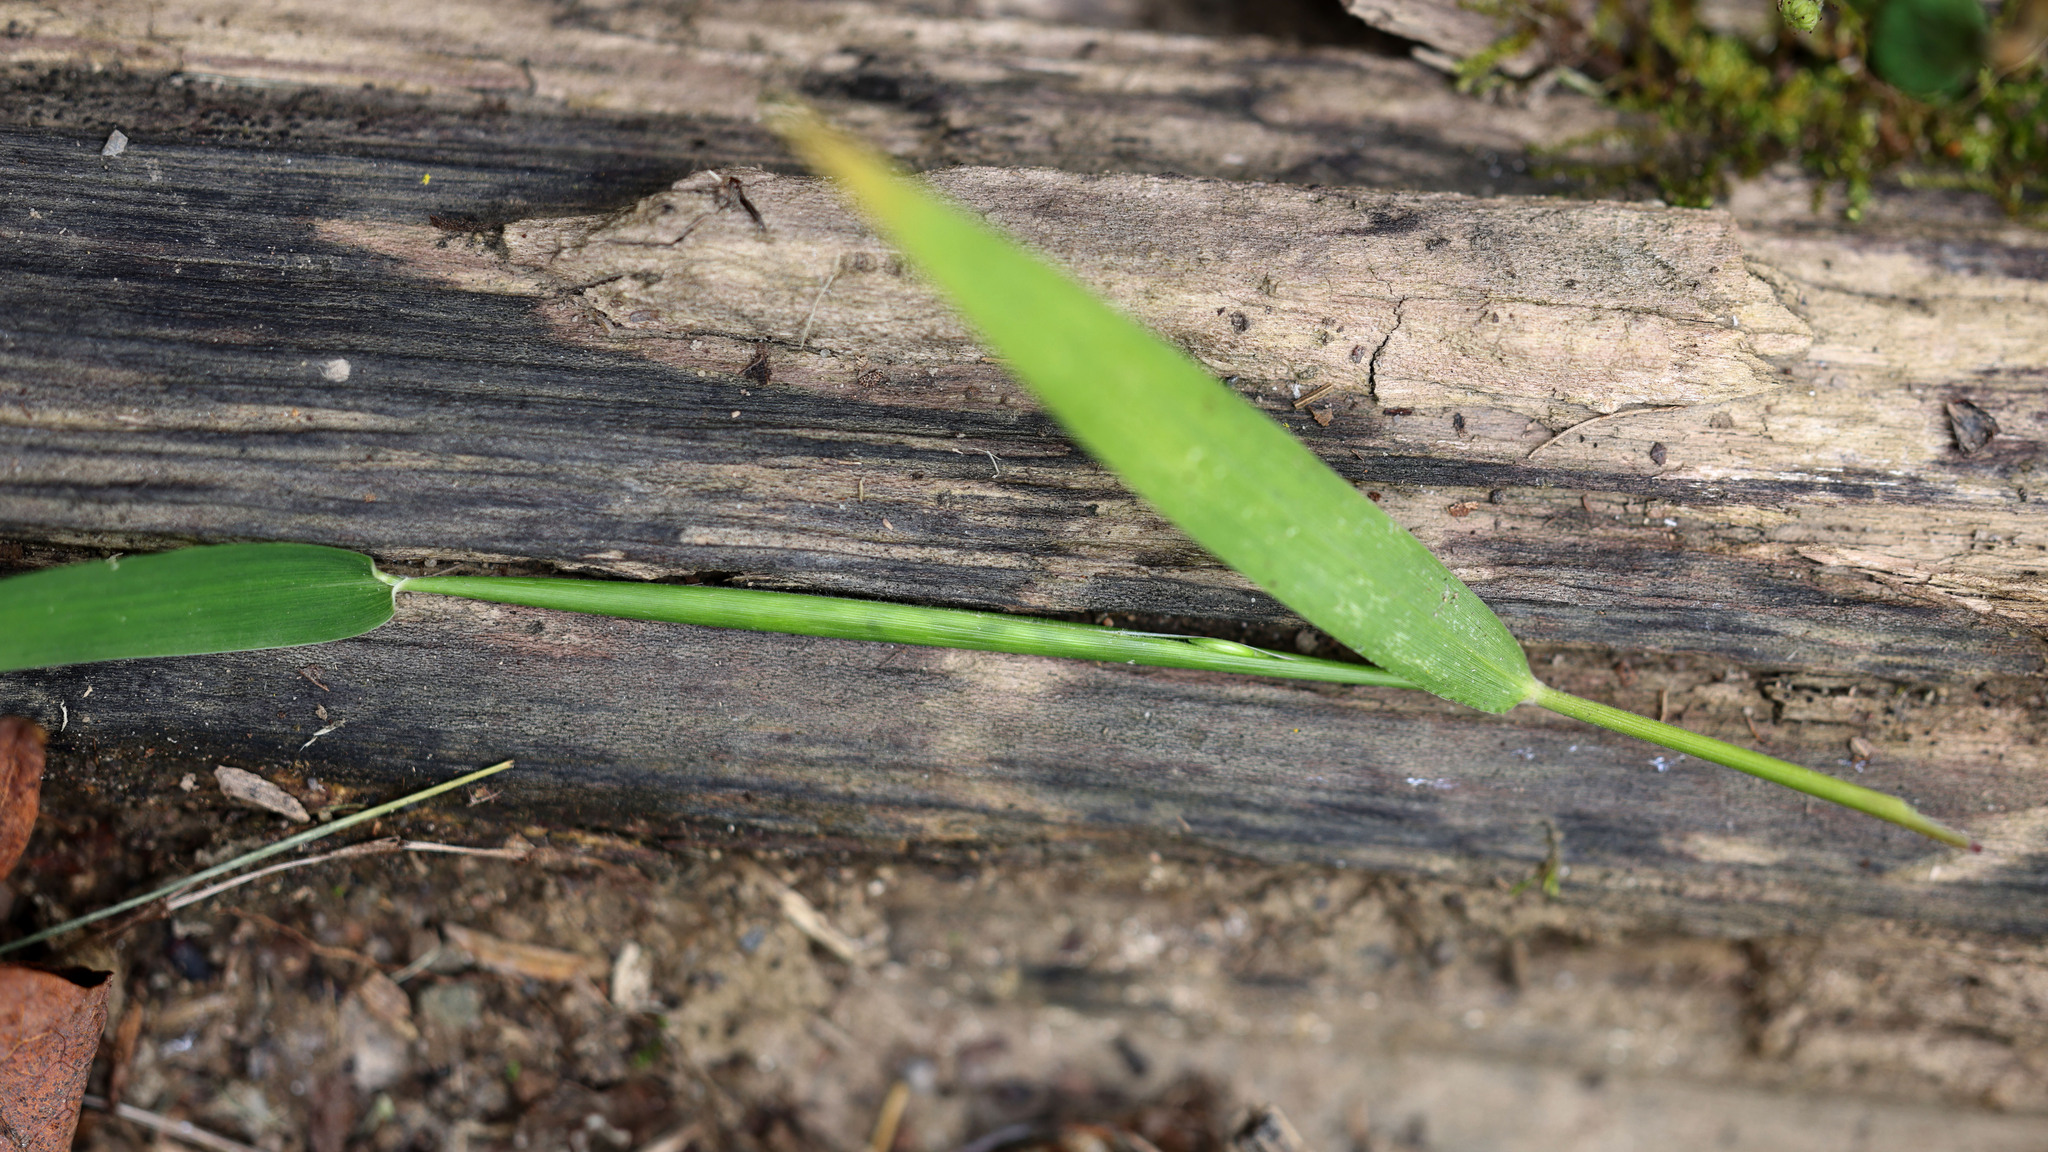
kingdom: Plantae
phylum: Tracheophyta
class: Liliopsida
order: Poales
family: Poaceae
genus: Eriochloa
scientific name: Eriochloa villosa
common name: Hairy cupgrass
